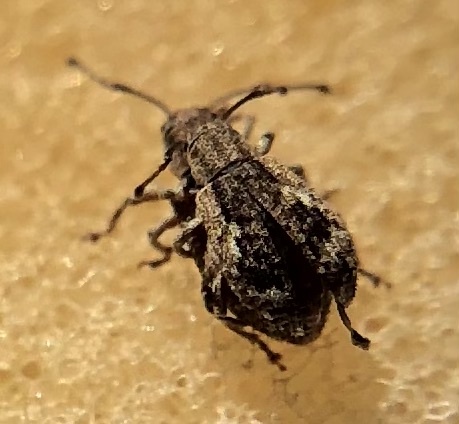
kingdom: Animalia
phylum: Arthropoda
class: Insecta
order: Coleoptera
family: Curculionidae
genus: Pseudoedophrys
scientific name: Pseudoedophrys hilleri
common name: Weevil
